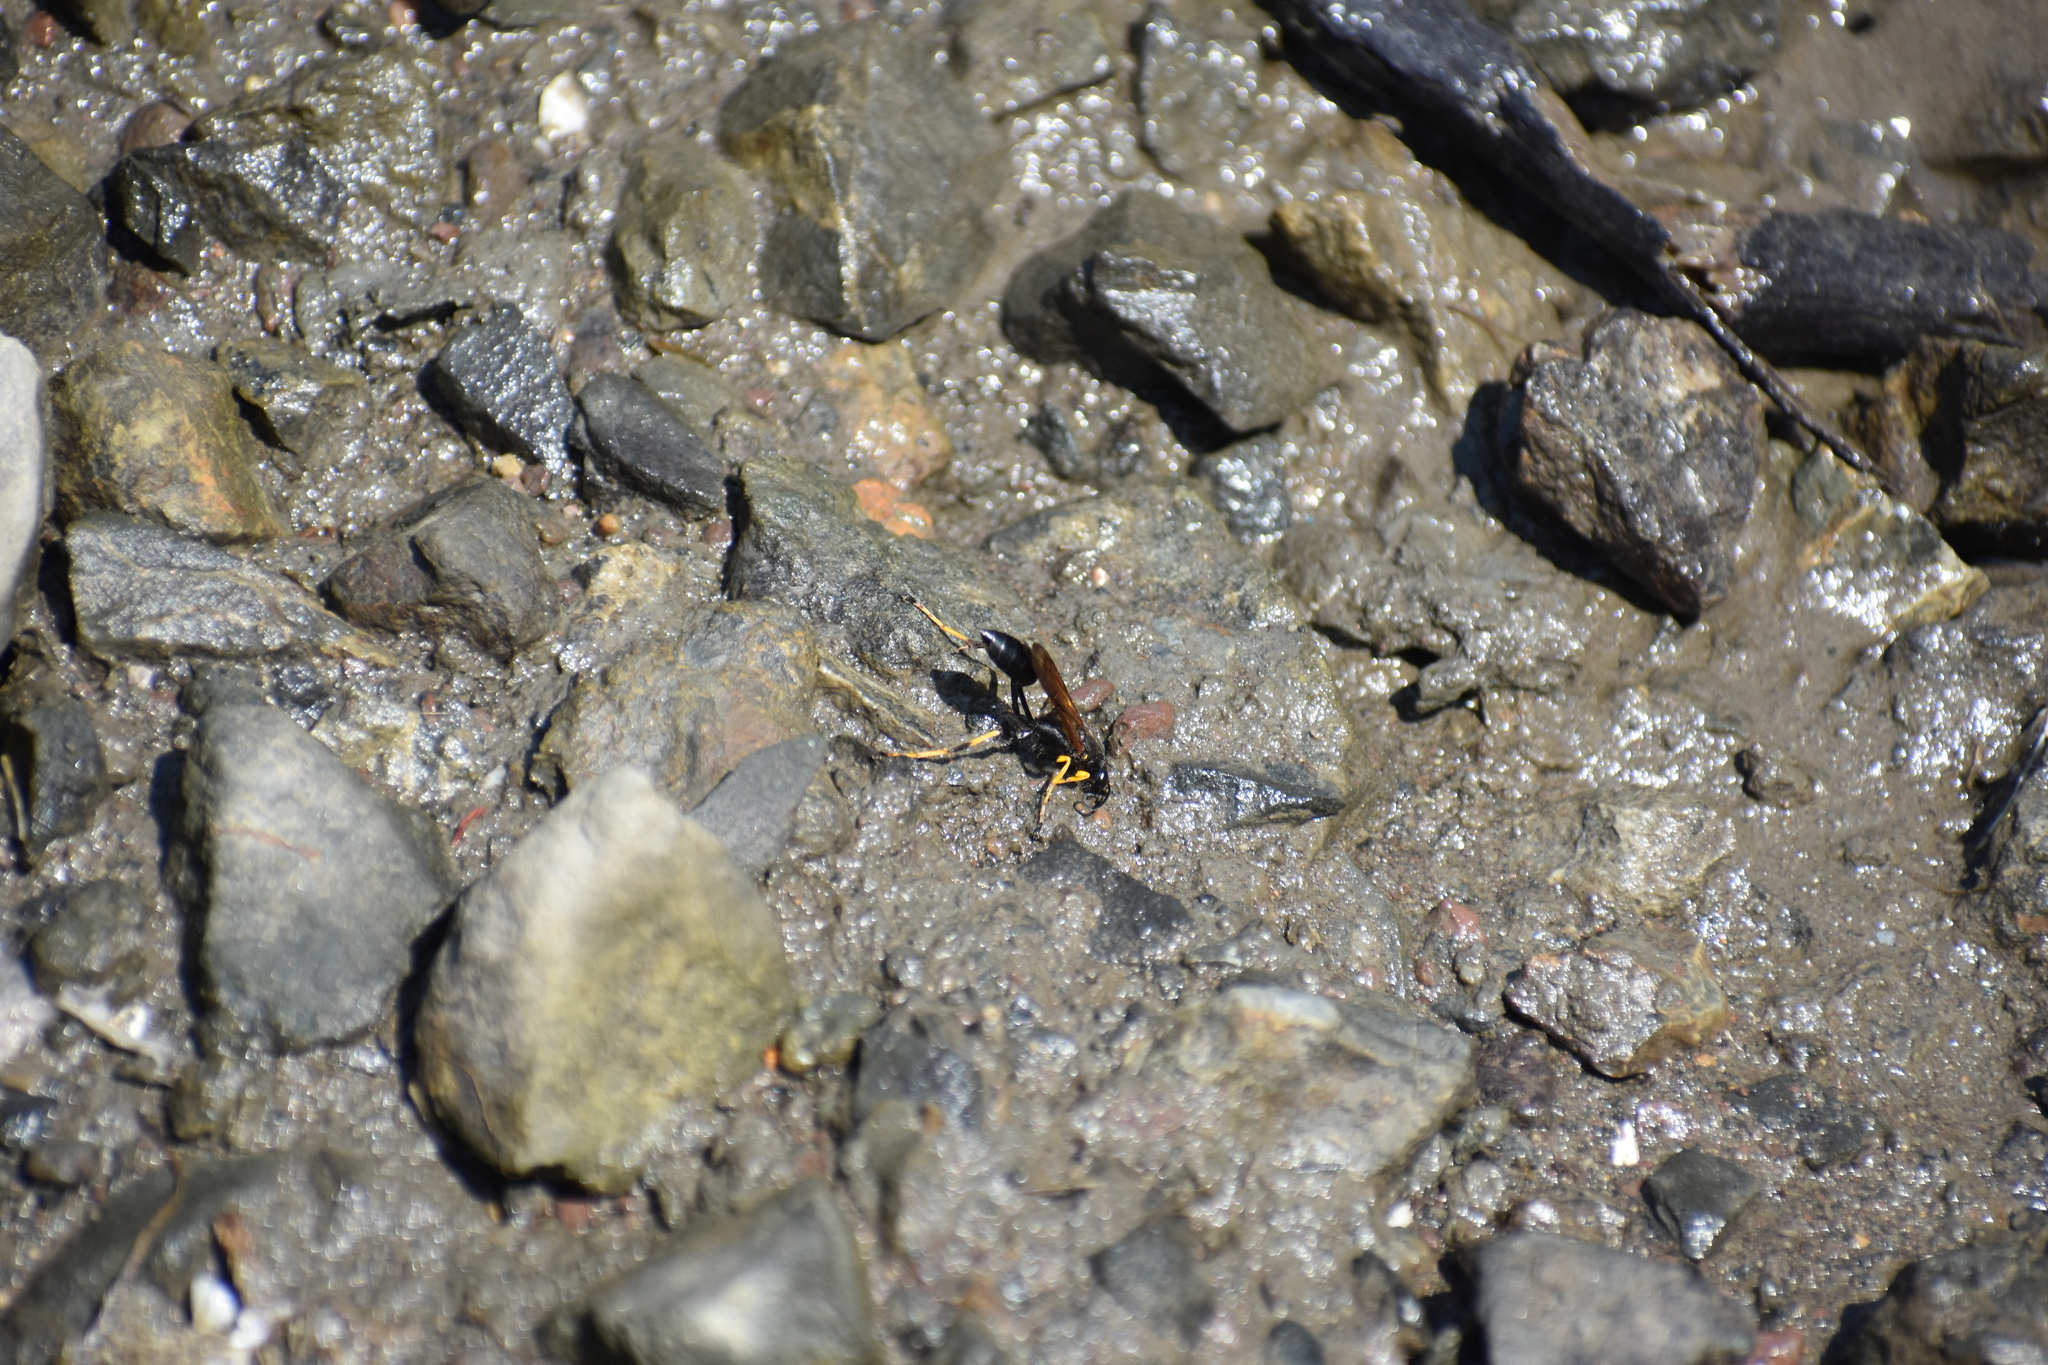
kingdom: Animalia
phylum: Arthropoda
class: Insecta
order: Hymenoptera
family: Sphecidae
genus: Sceliphron
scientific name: Sceliphron caementarium
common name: Mud dauber
